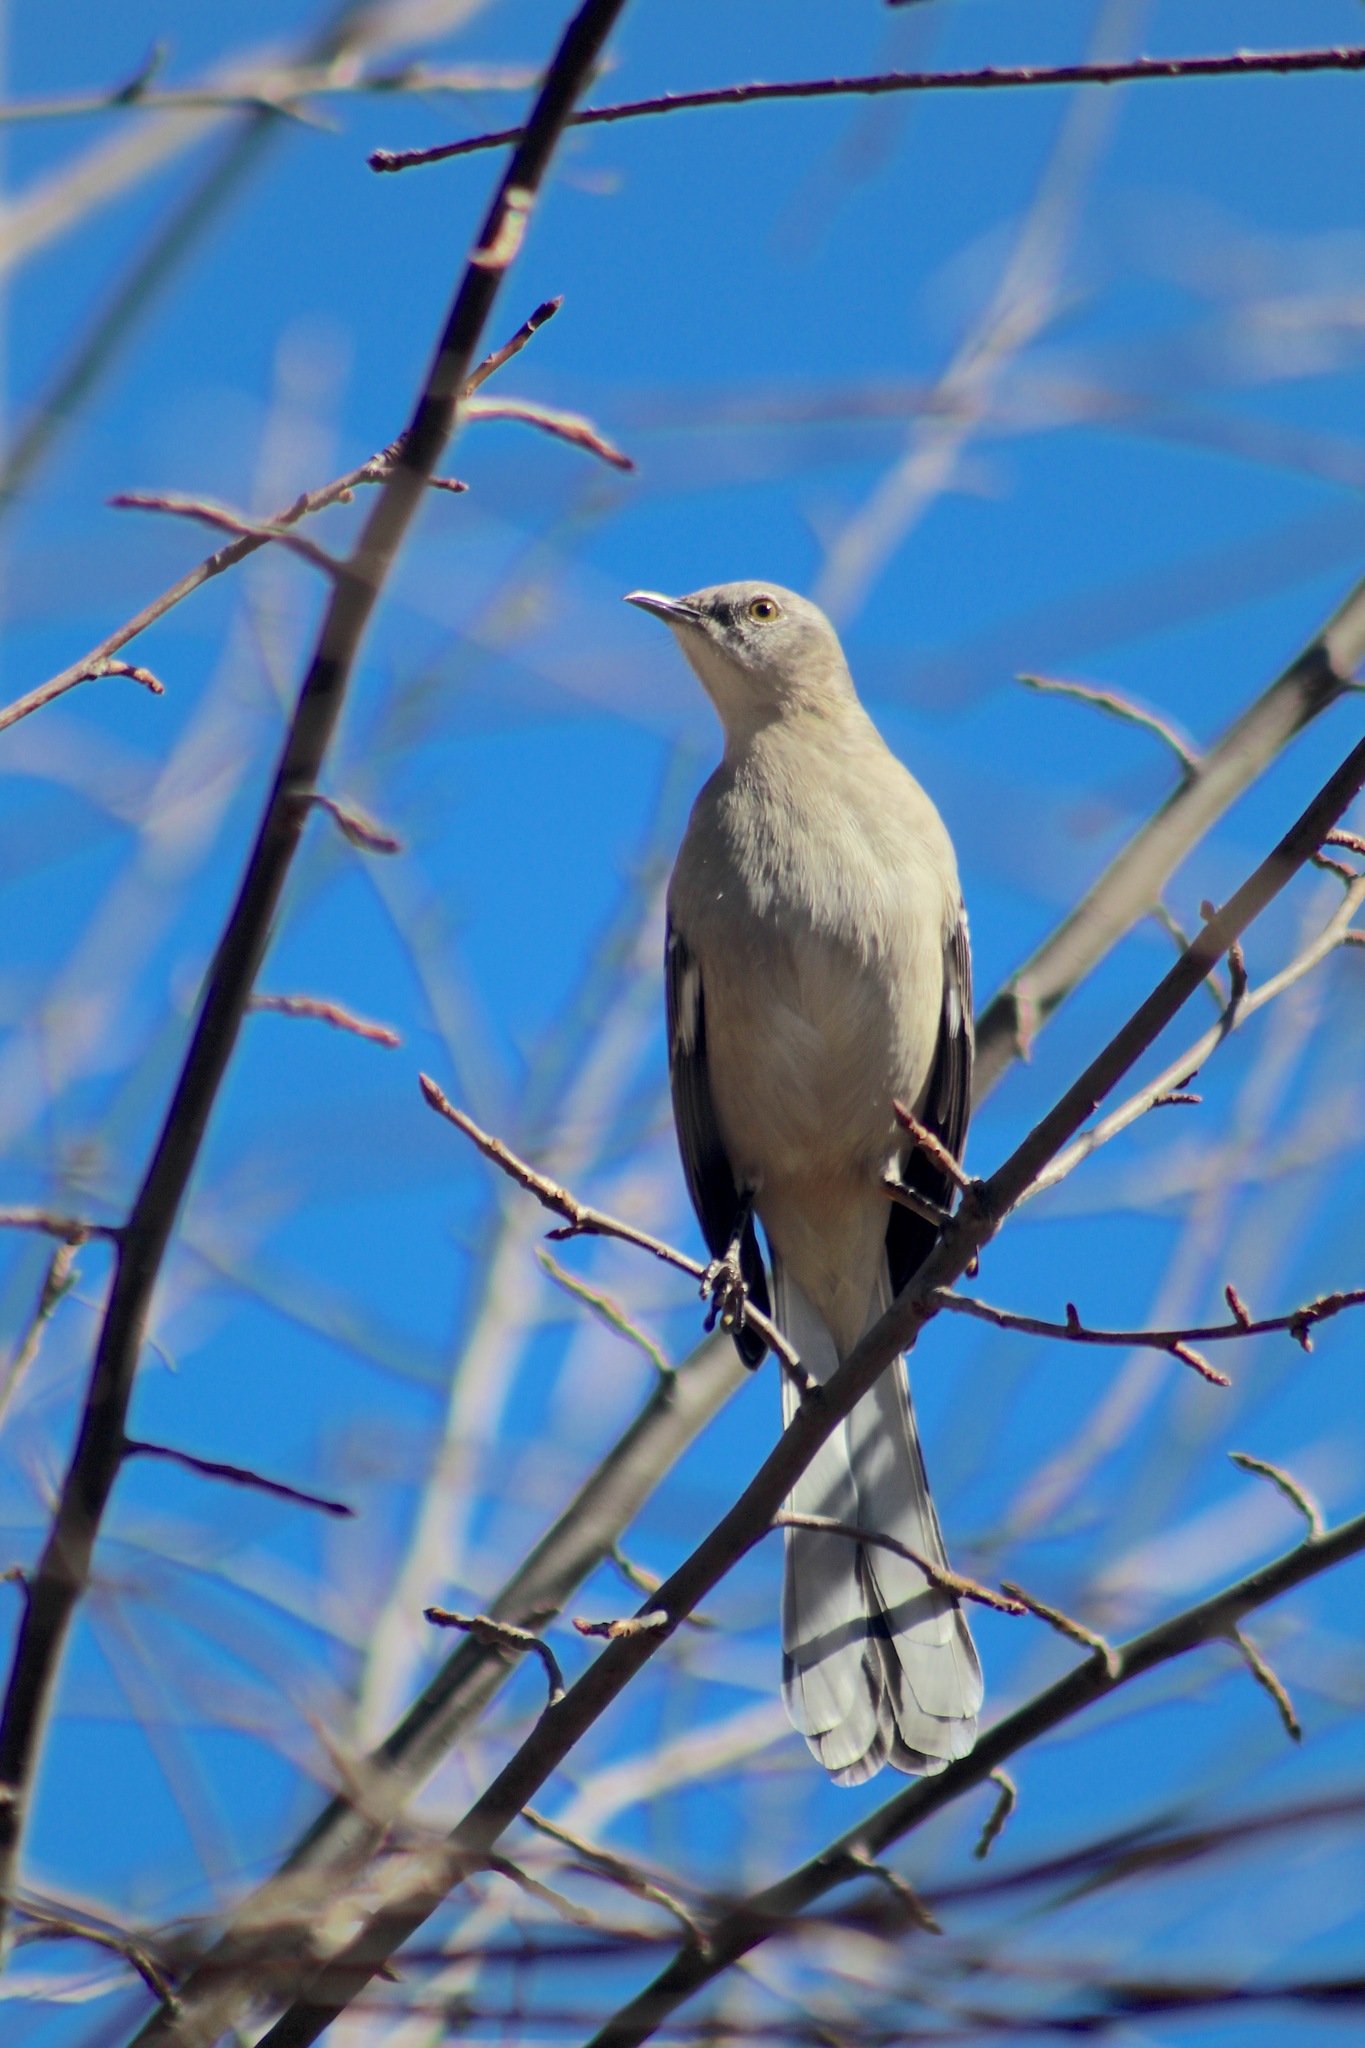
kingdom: Animalia
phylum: Chordata
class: Aves
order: Passeriformes
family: Mimidae
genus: Mimus
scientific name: Mimus polyglottos
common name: Northern mockingbird
